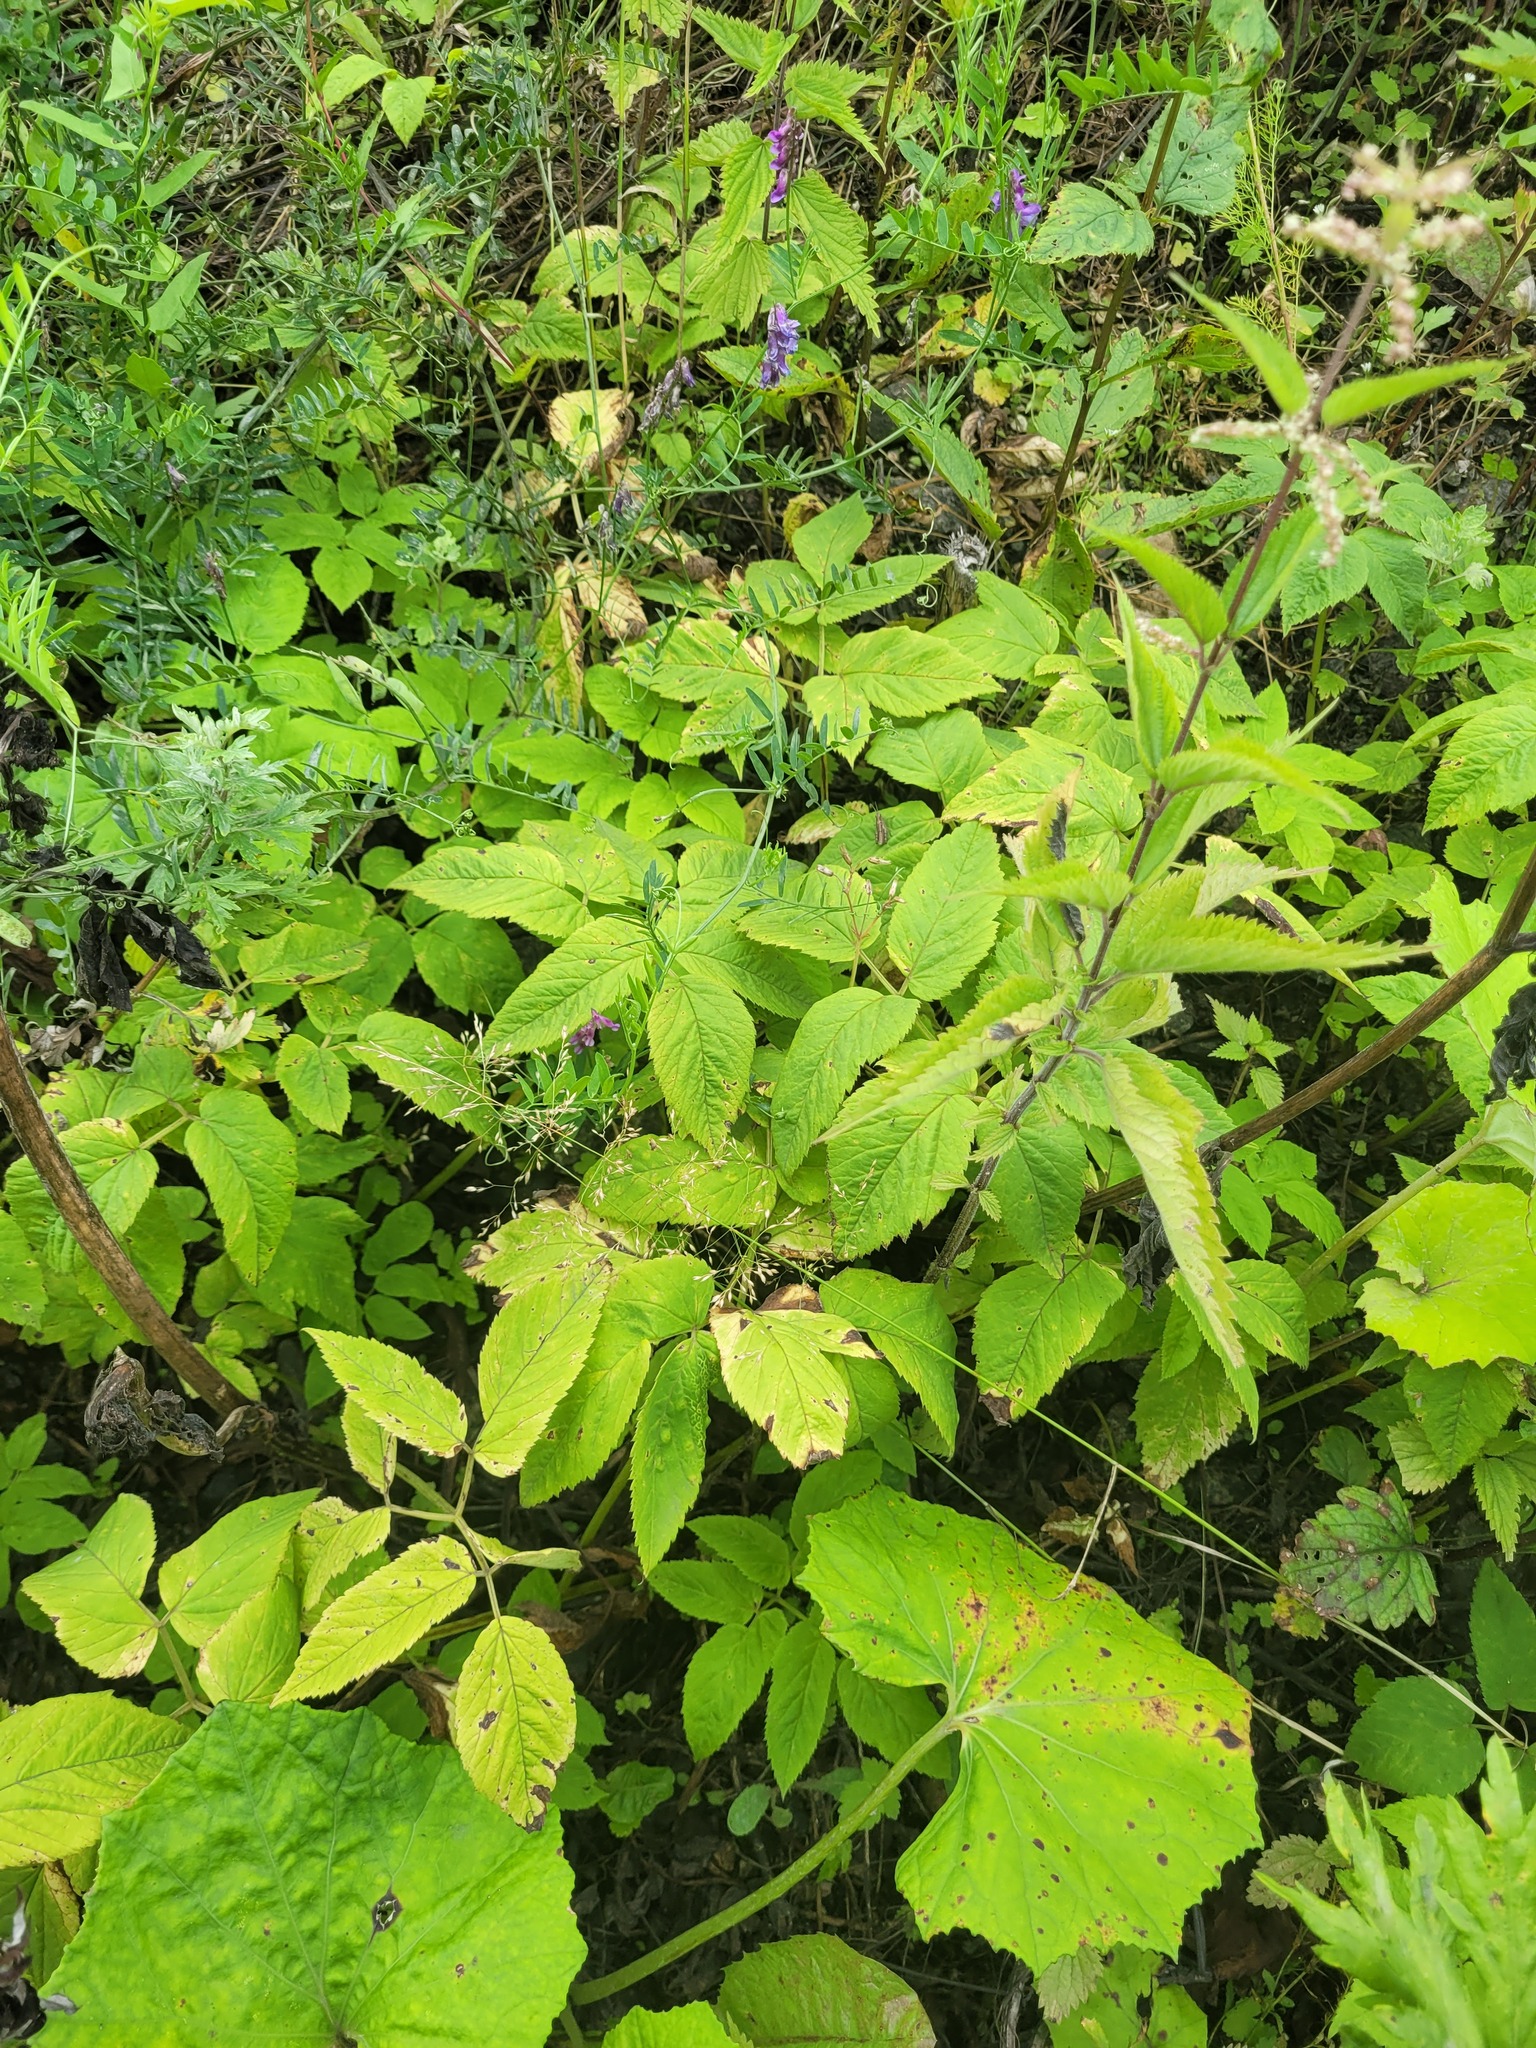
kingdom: Plantae
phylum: Tracheophyta
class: Magnoliopsida
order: Apiales
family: Apiaceae
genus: Aegopodium
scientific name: Aegopodium podagraria
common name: Ground-elder
